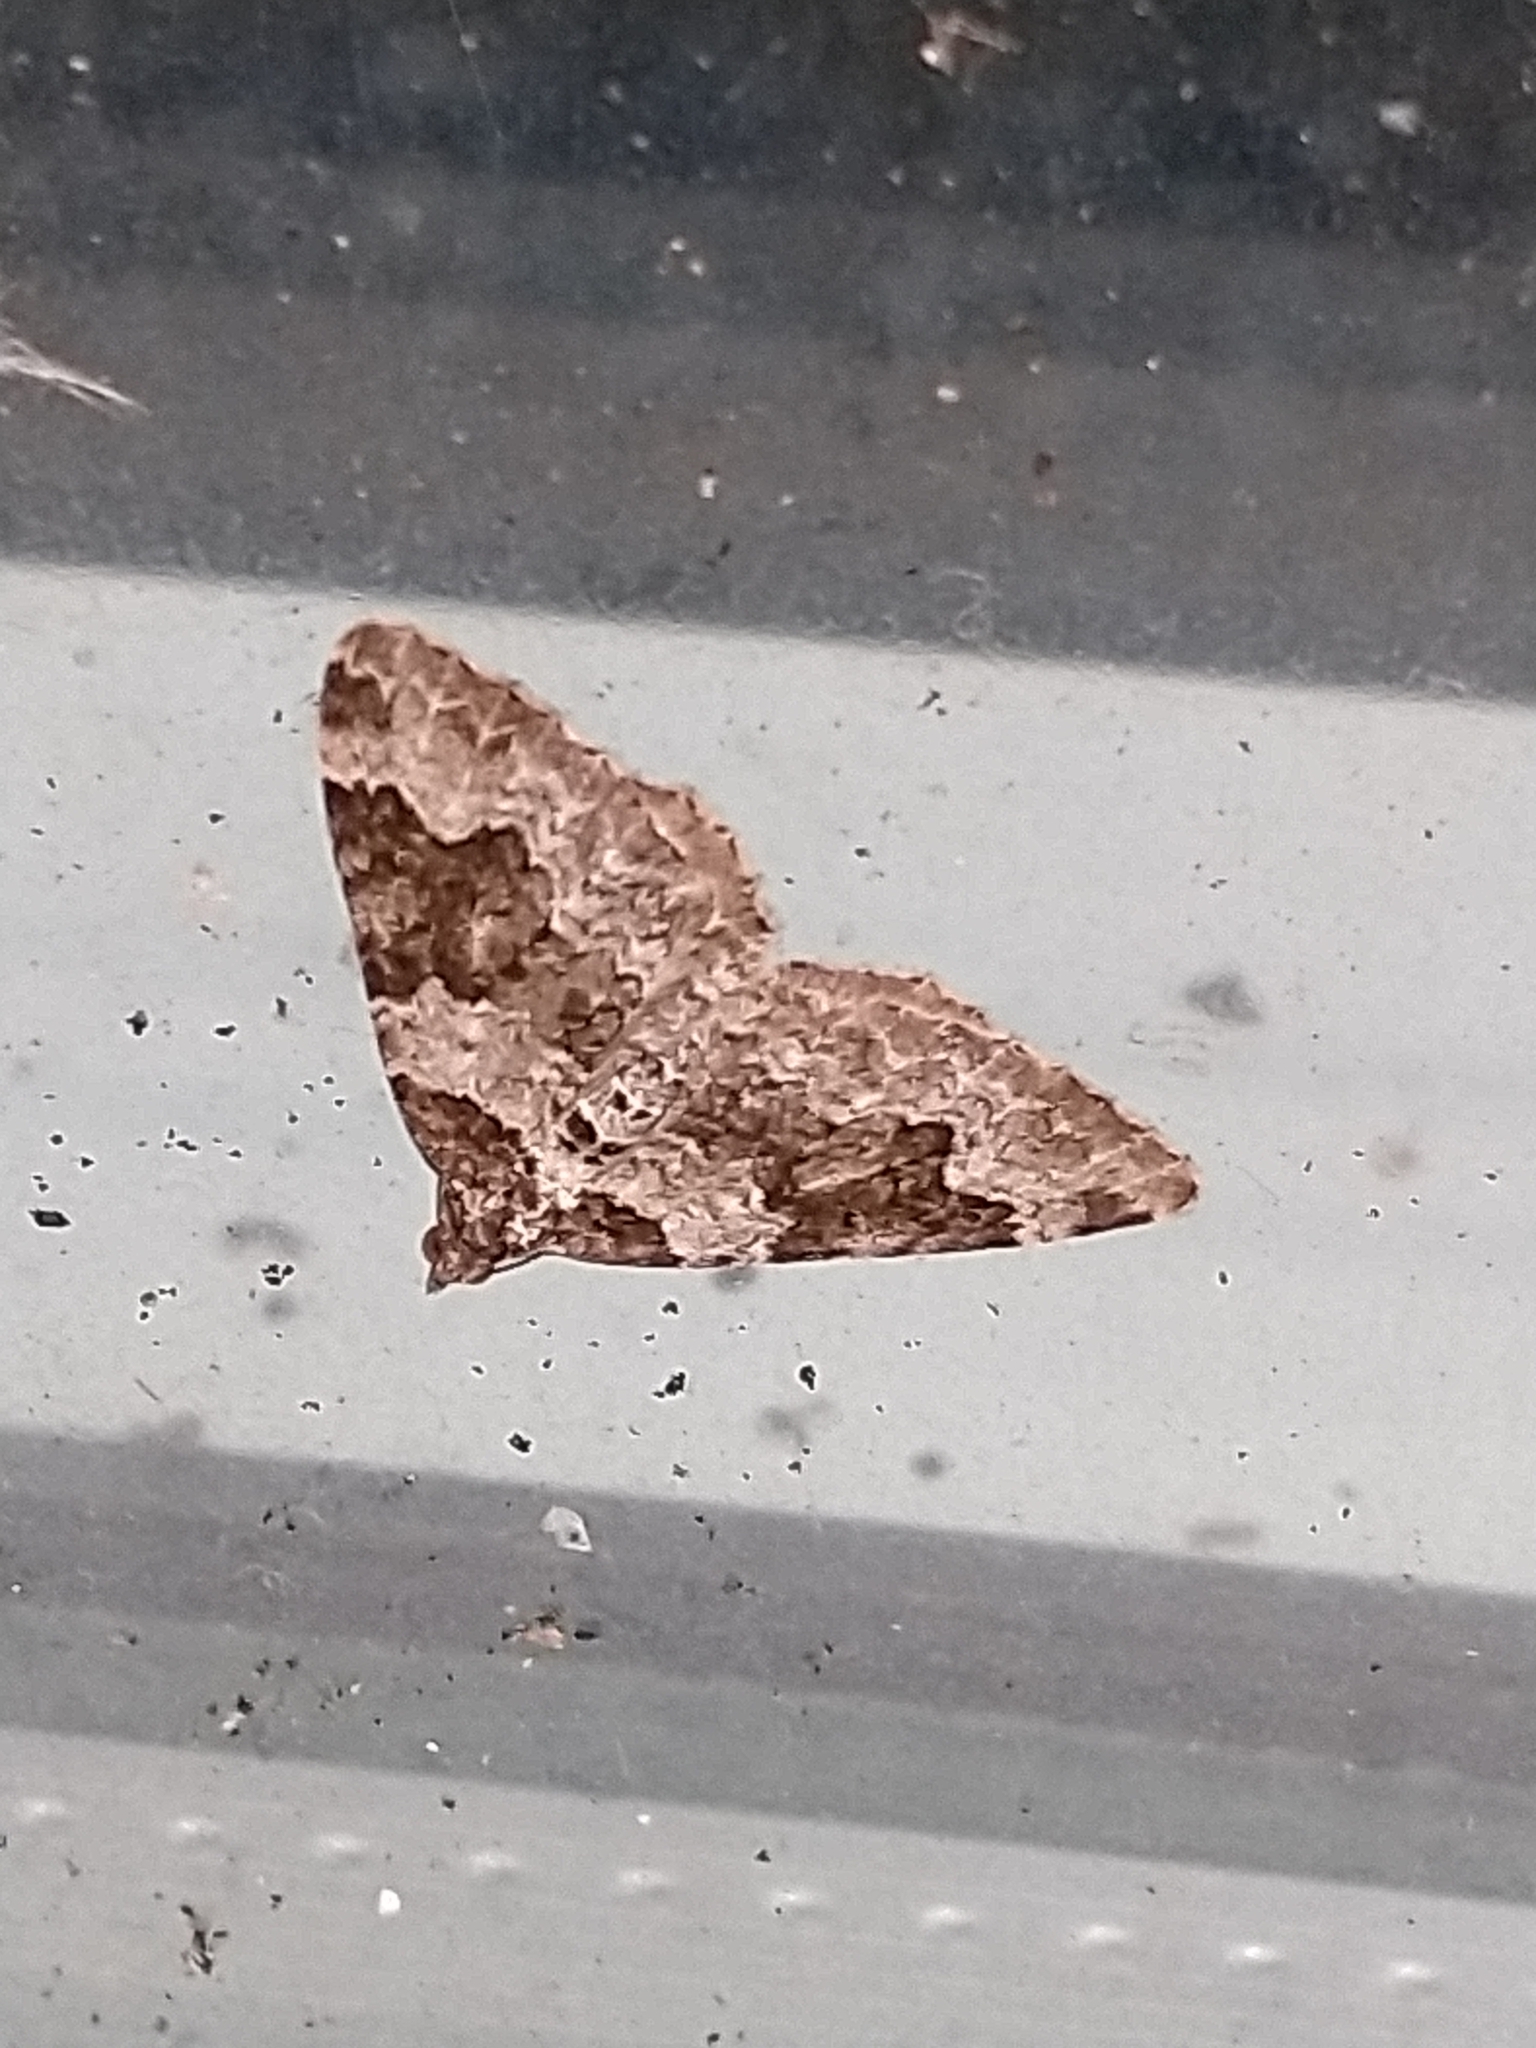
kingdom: Animalia
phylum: Arthropoda
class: Insecta
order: Lepidoptera
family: Geometridae
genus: Xanthorhoe
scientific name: Xanthorhoe fluctuata
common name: Garden carpet
